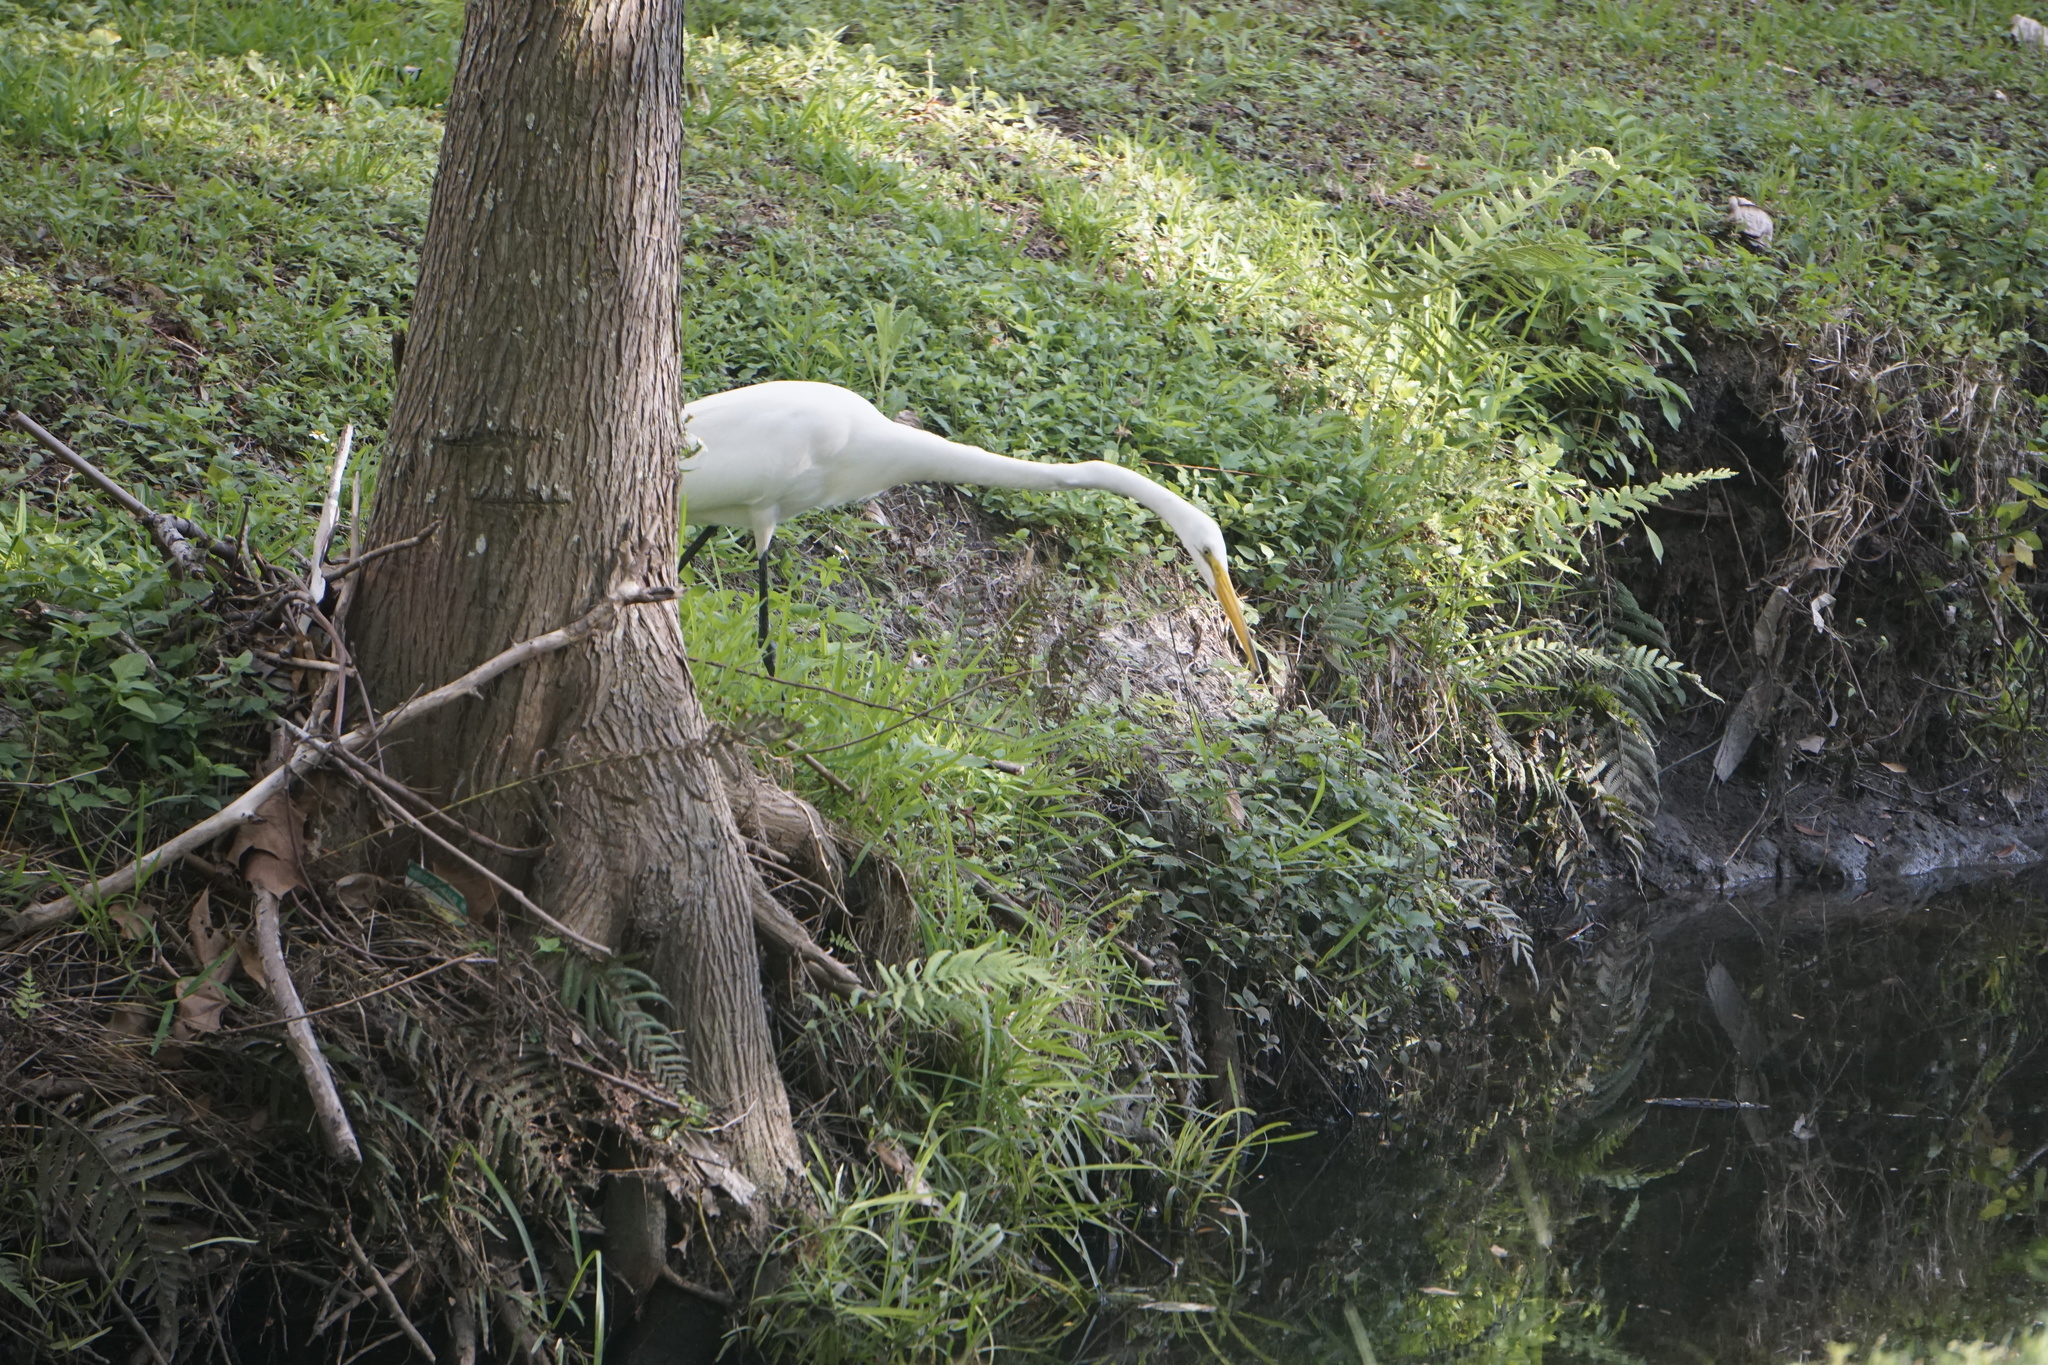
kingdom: Animalia
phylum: Chordata
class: Aves
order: Pelecaniformes
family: Ardeidae
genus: Ardea
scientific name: Ardea alba
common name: Great egret
